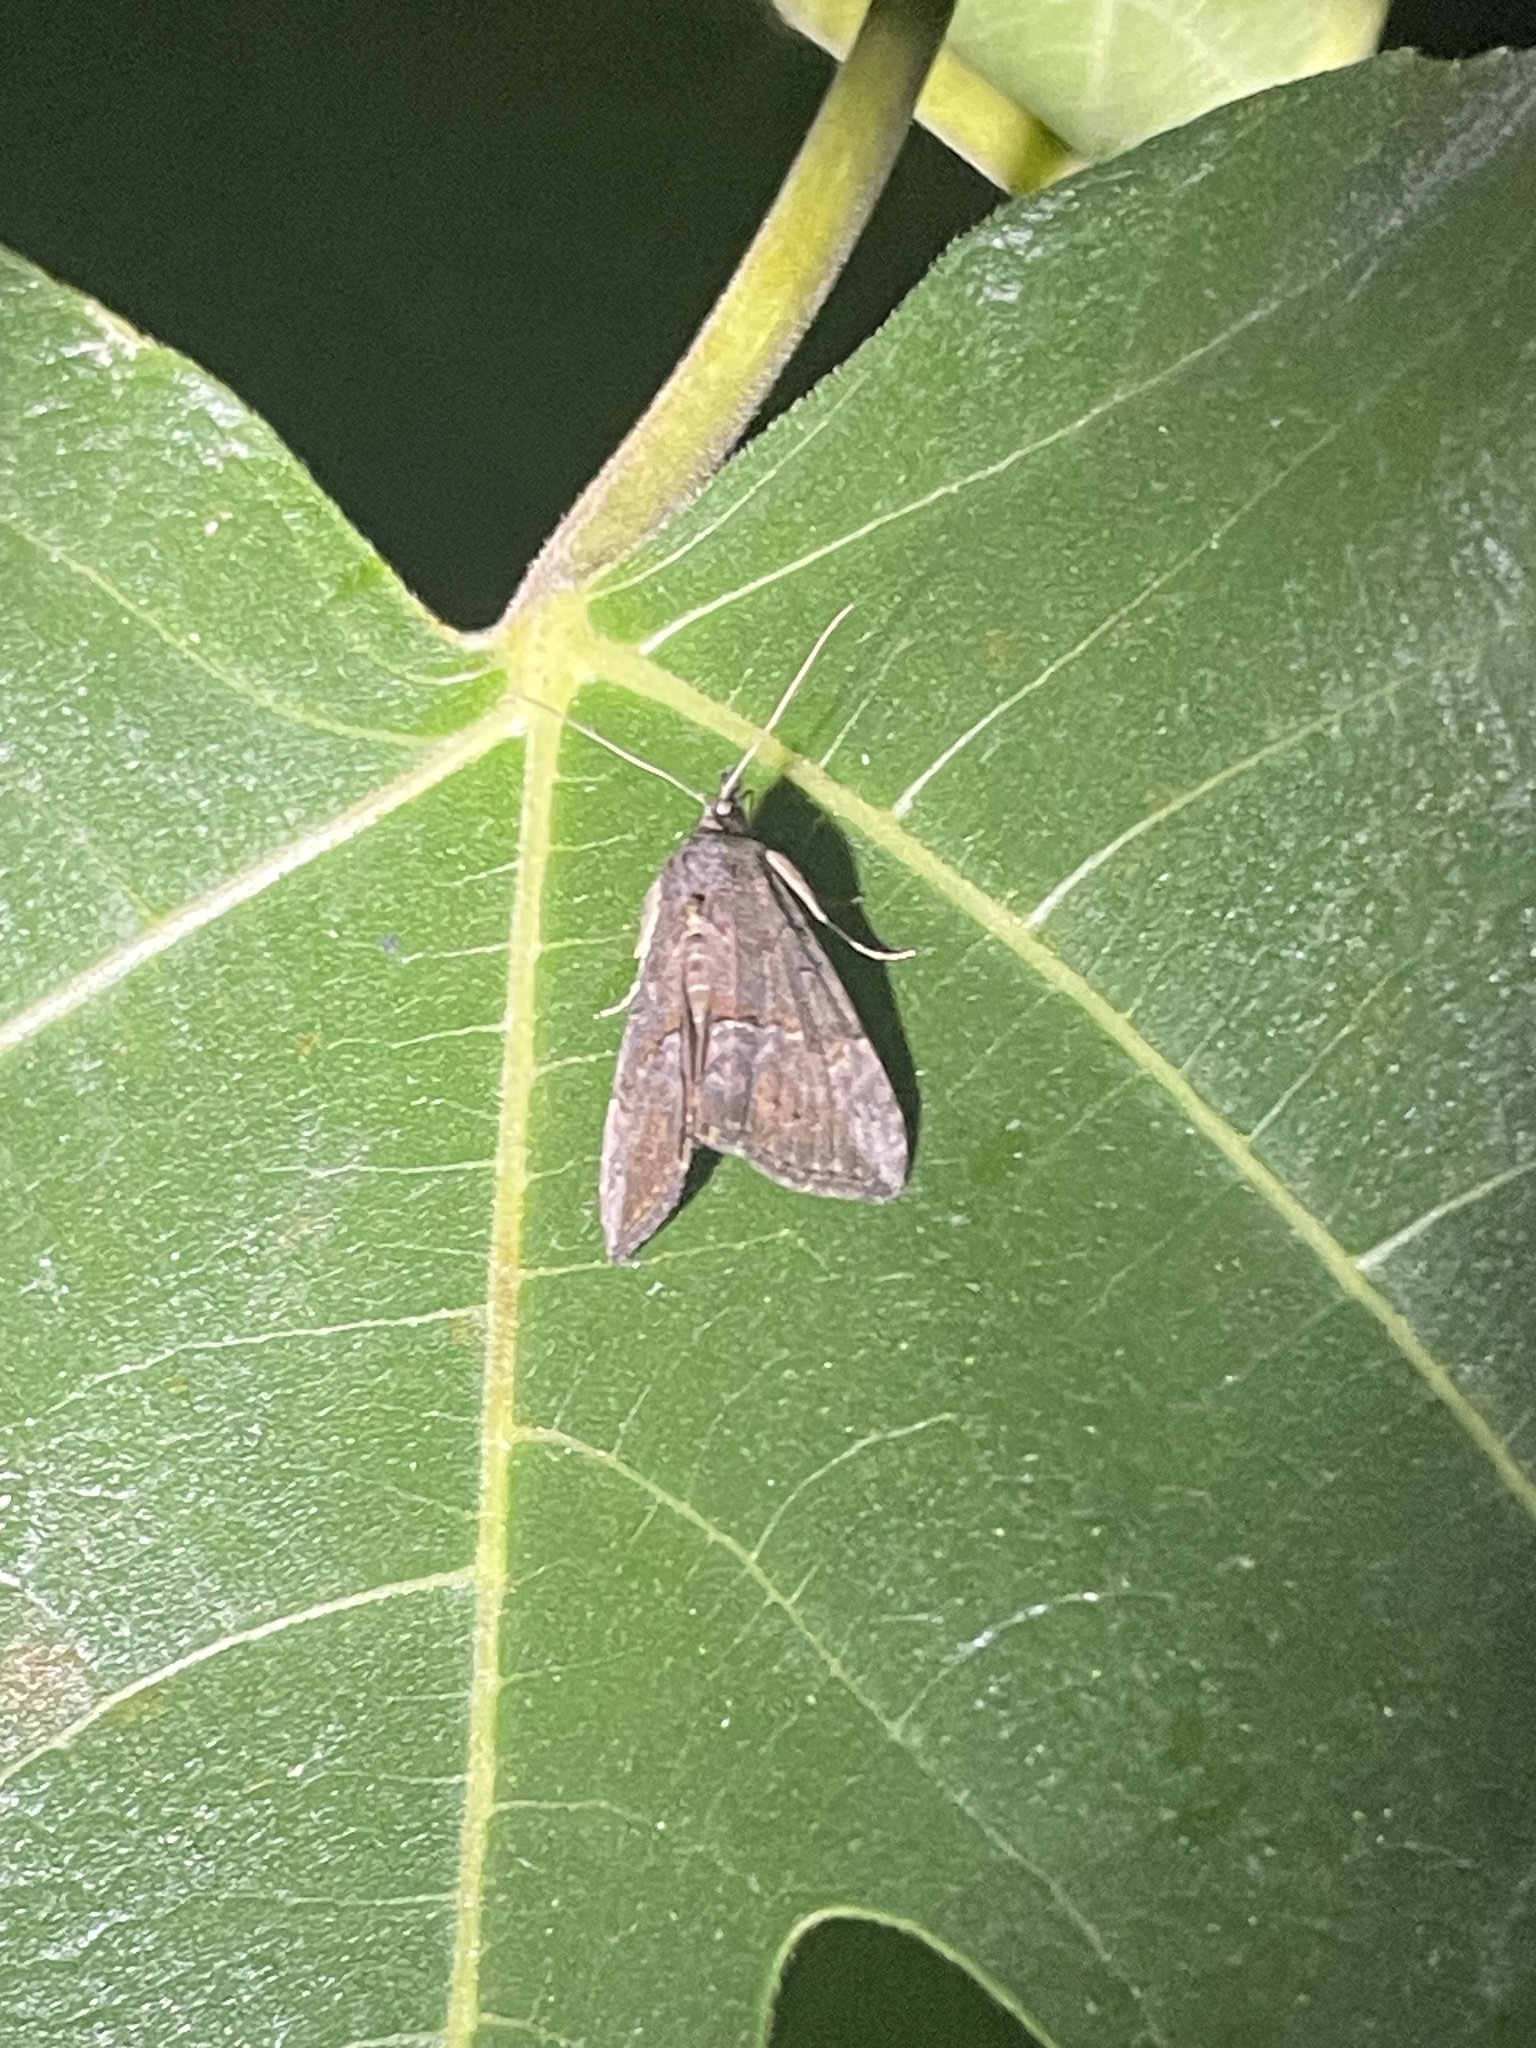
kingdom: Animalia
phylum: Arthropoda
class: Insecta
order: Lepidoptera
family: Erebidae
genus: Hypena
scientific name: Hypena scabra
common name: Green cloverworm
